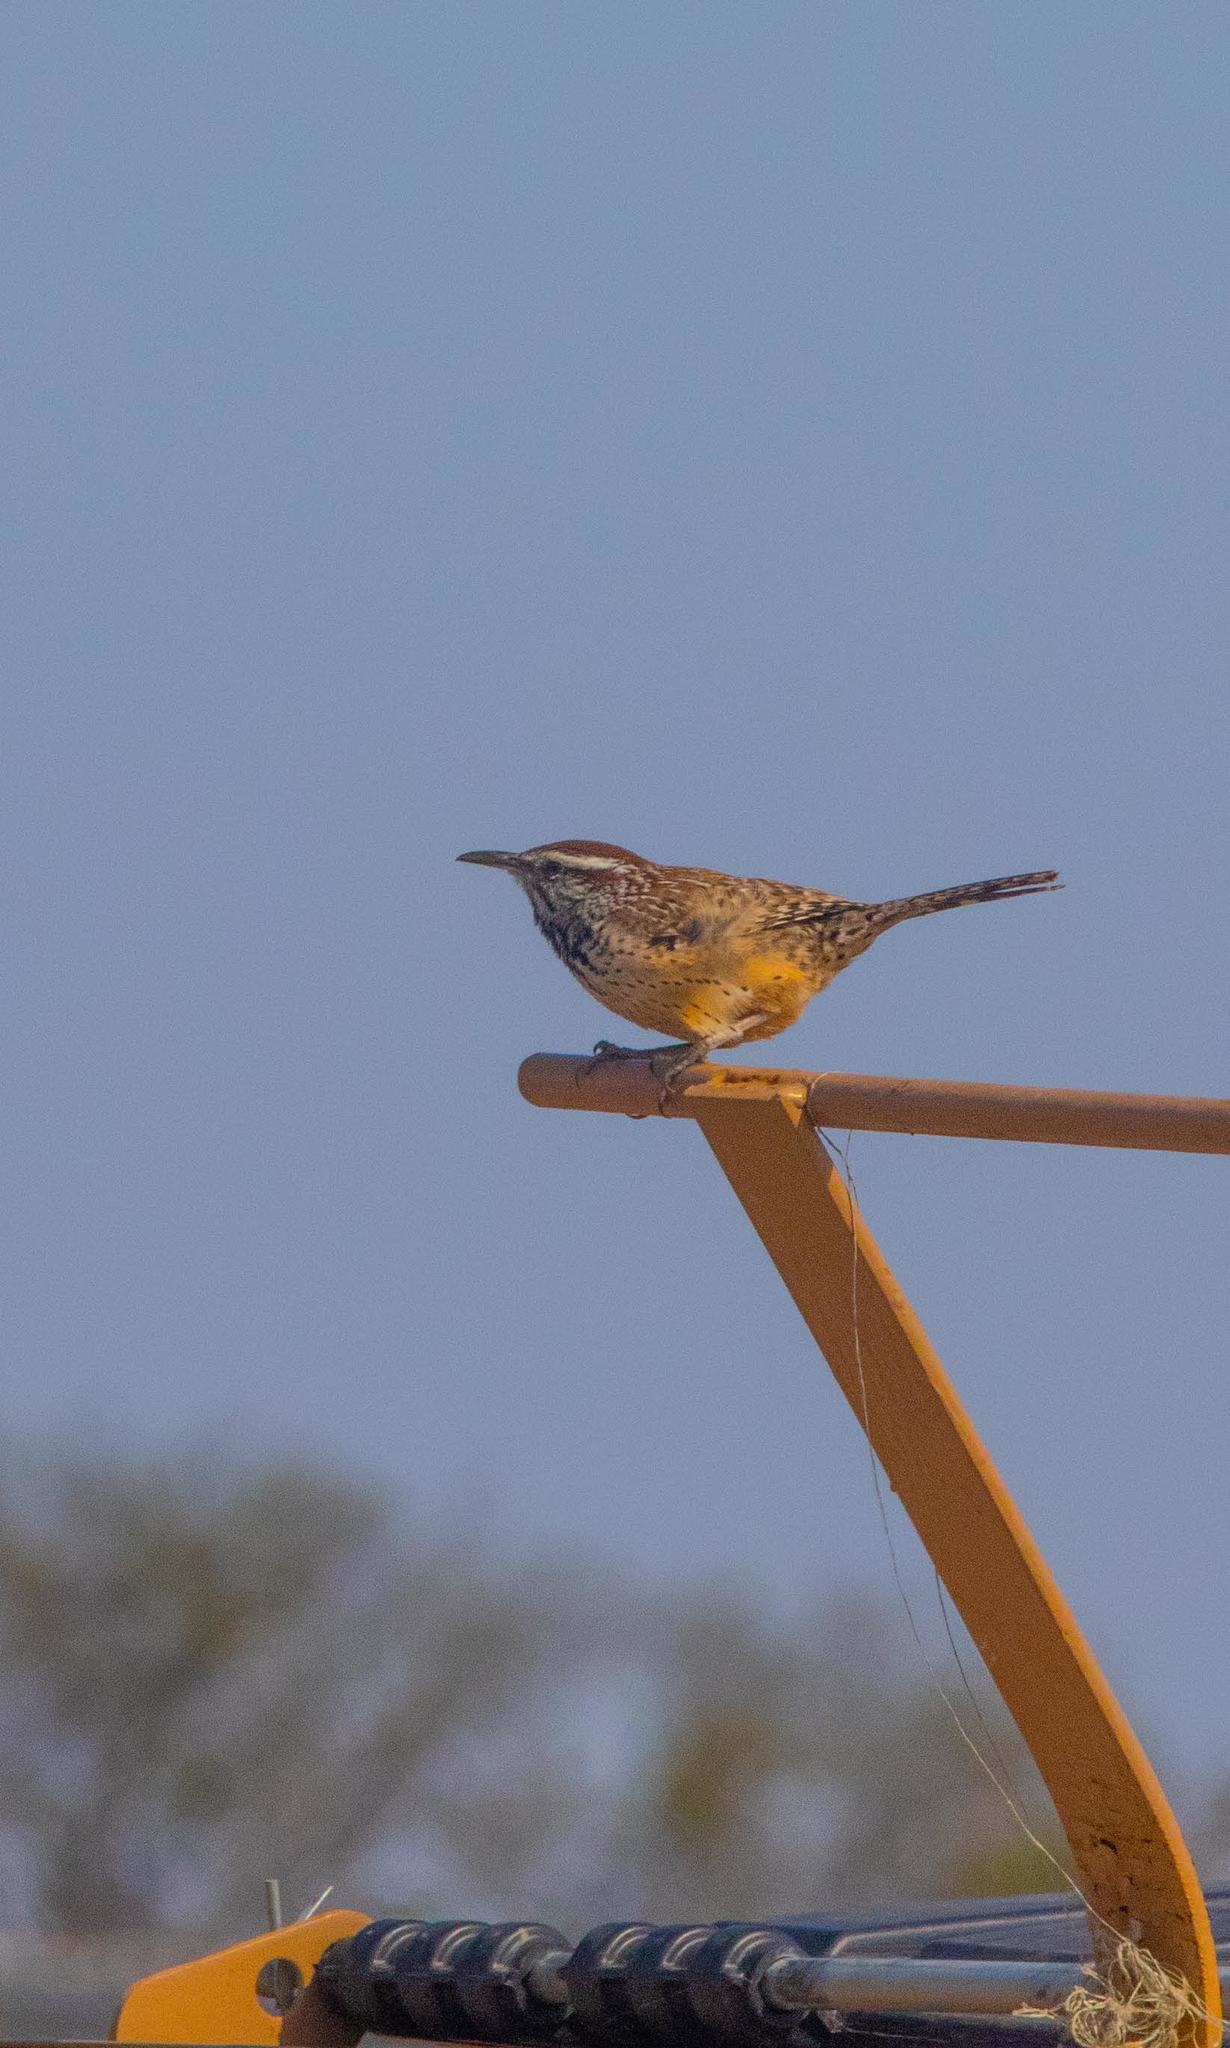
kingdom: Animalia
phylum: Chordata
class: Aves
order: Passeriformes
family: Troglodytidae
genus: Campylorhynchus
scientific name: Campylorhynchus brunneicapillus
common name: Cactus wren
